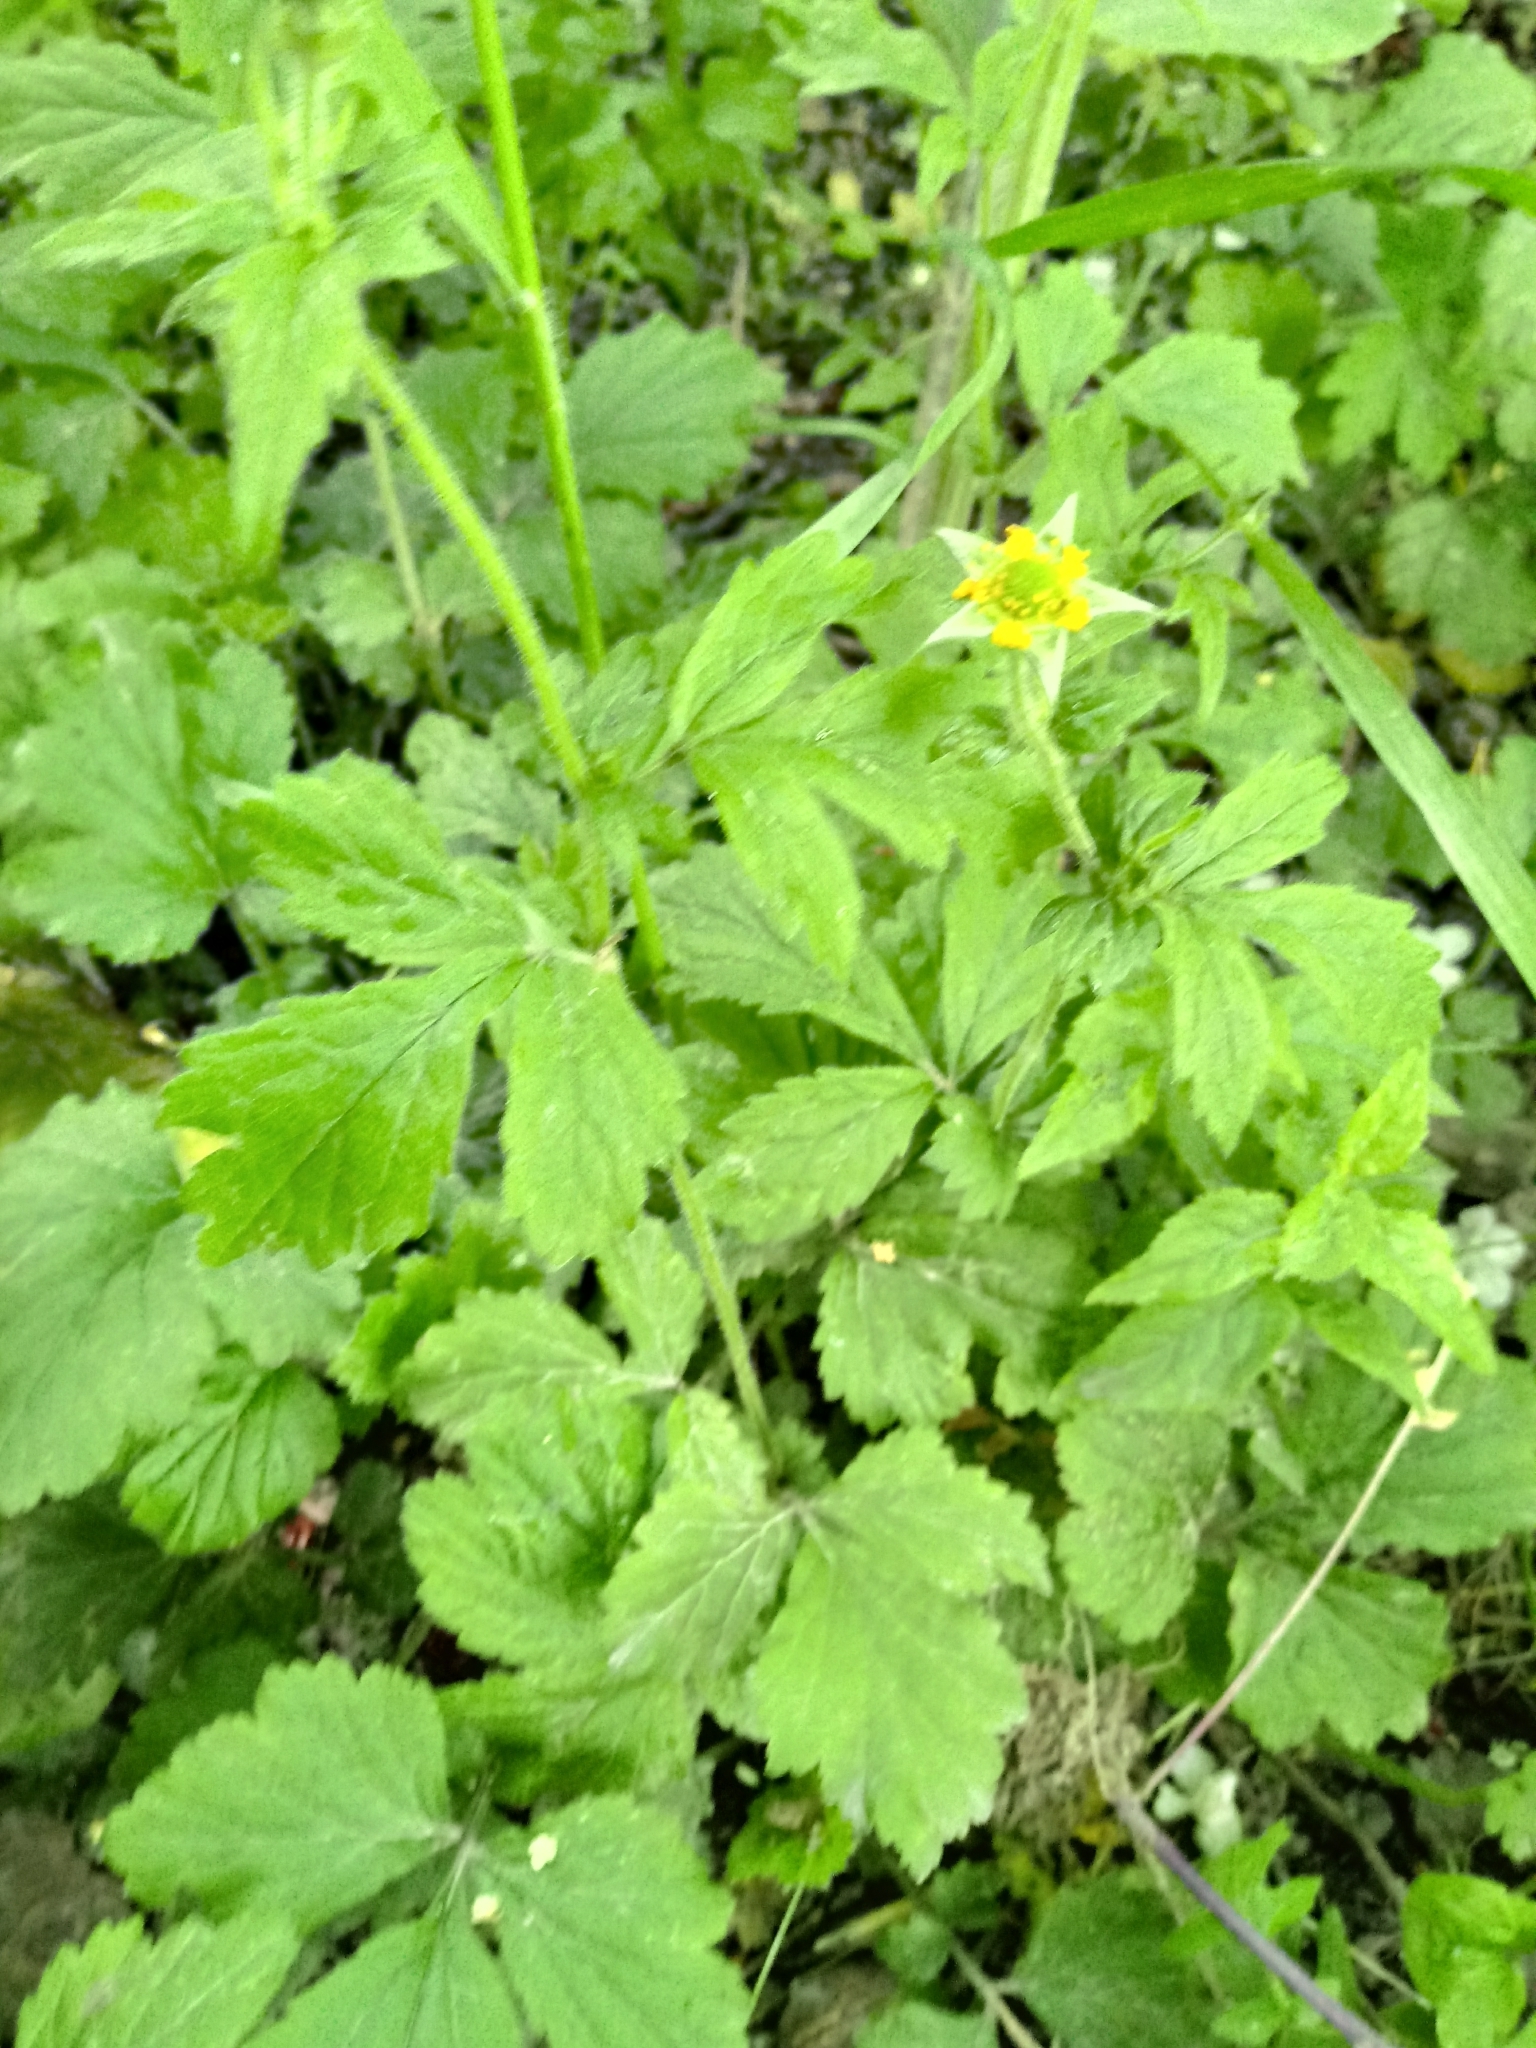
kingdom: Plantae
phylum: Tracheophyta
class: Magnoliopsida
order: Rosales
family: Rosaceae
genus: Geum
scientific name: Geum urbanum
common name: Wood avens
